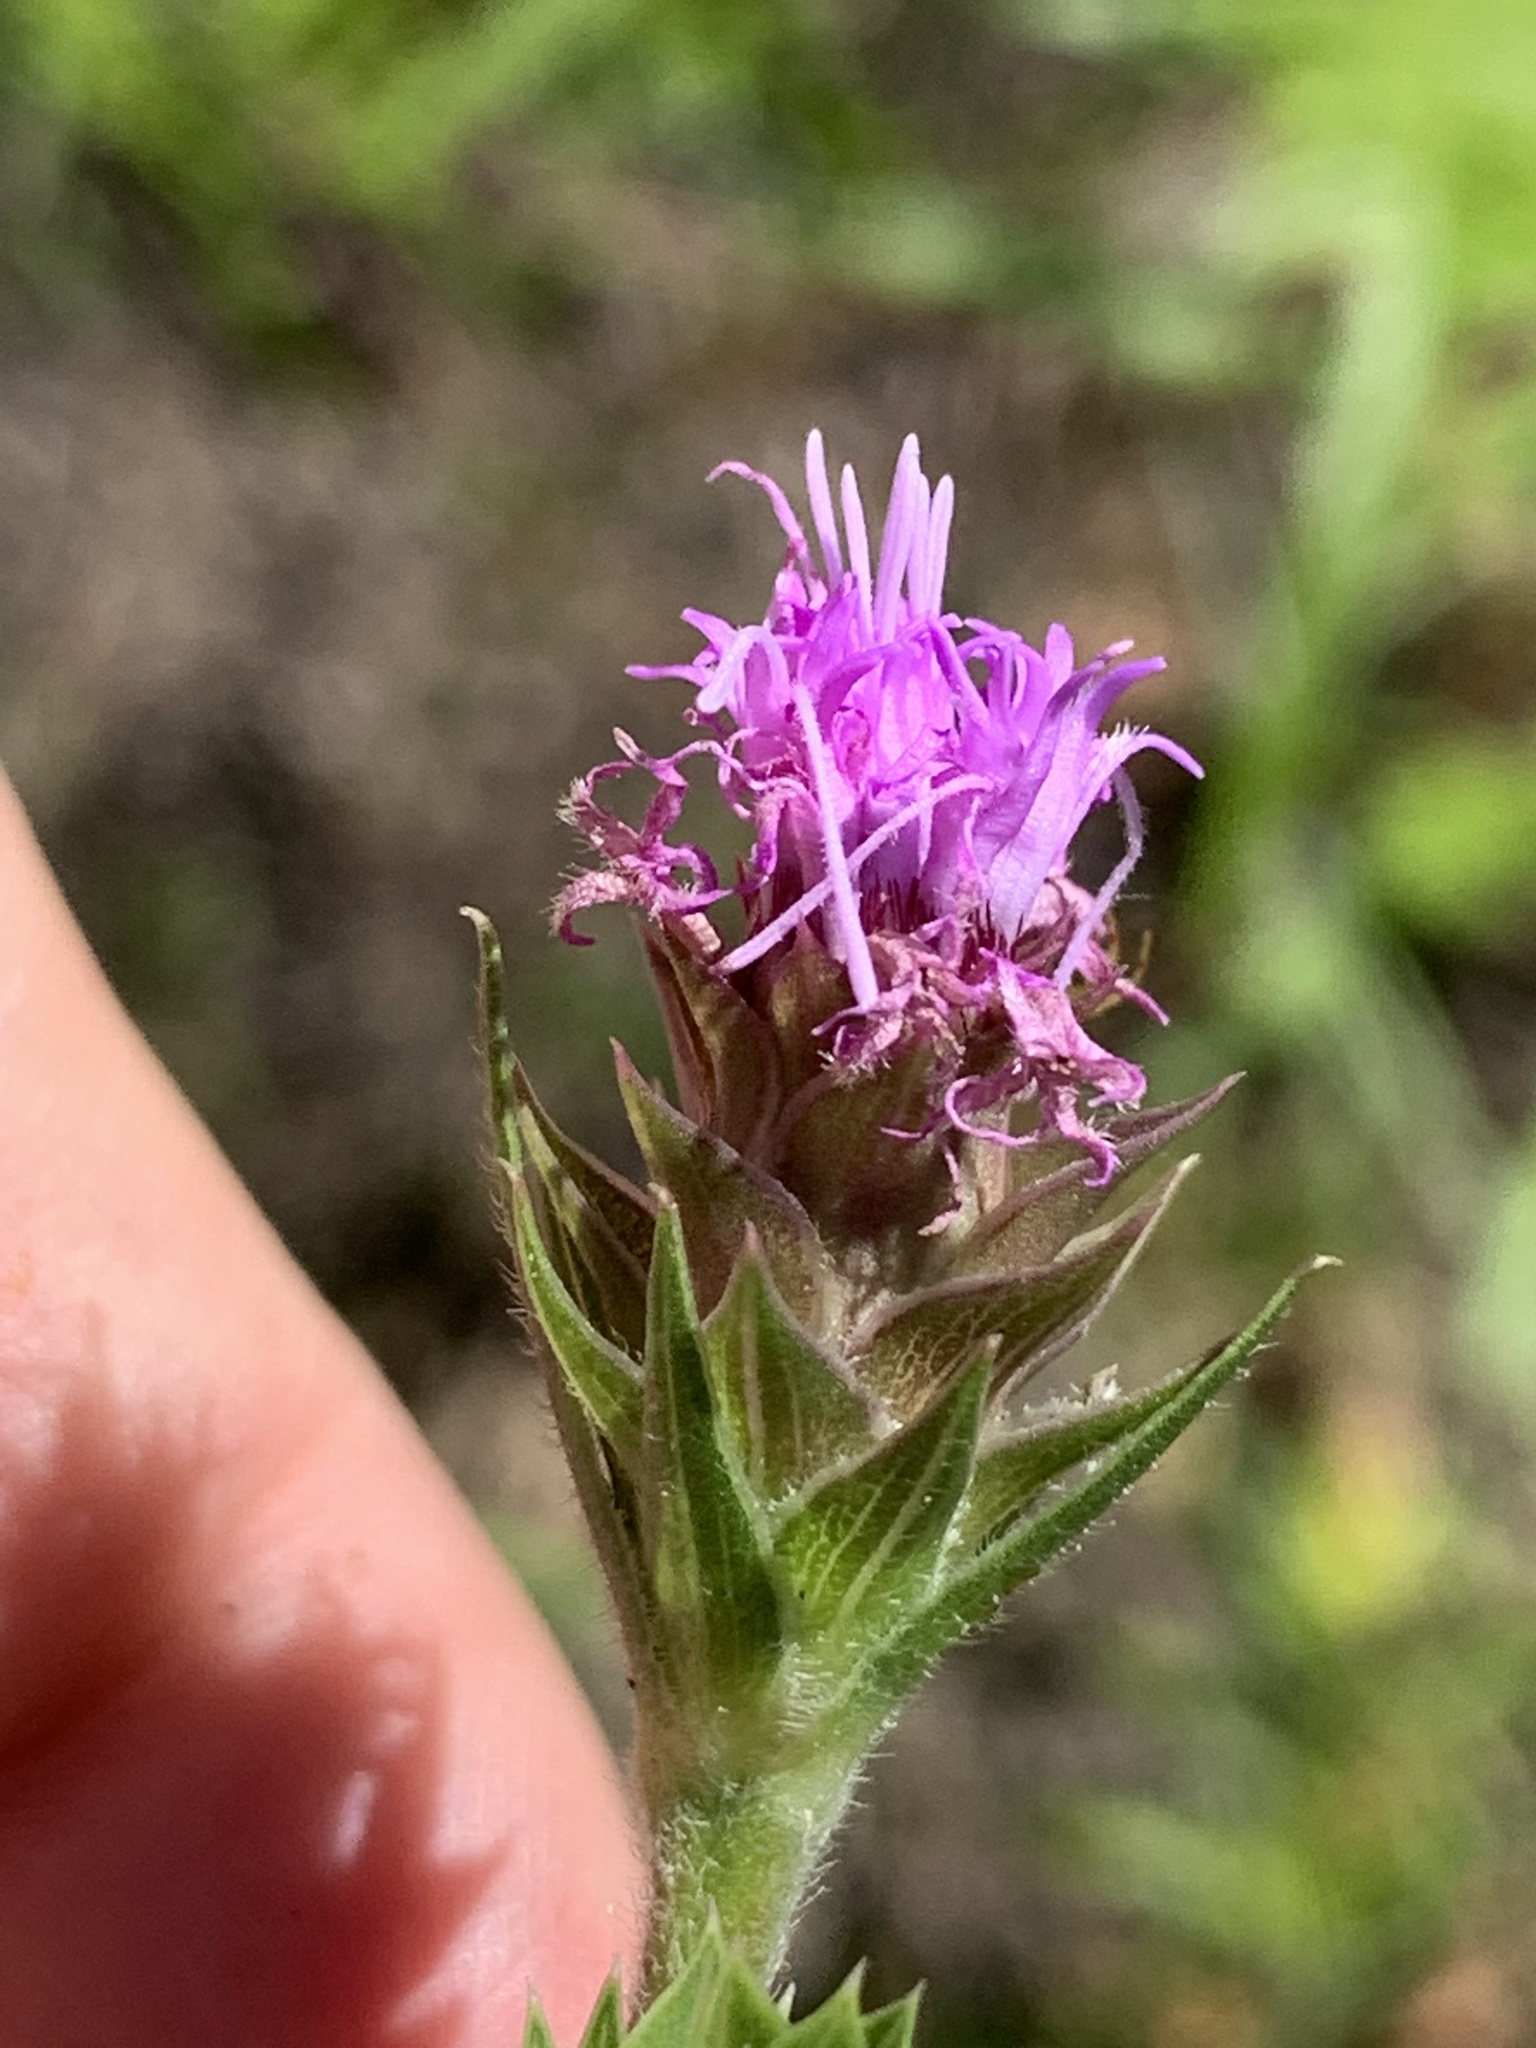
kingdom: Plantae
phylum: Tracheophyta
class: Magnoliopsida
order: Asterales
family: Asteraceae
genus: Liatris
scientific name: Liatris squarrosa
